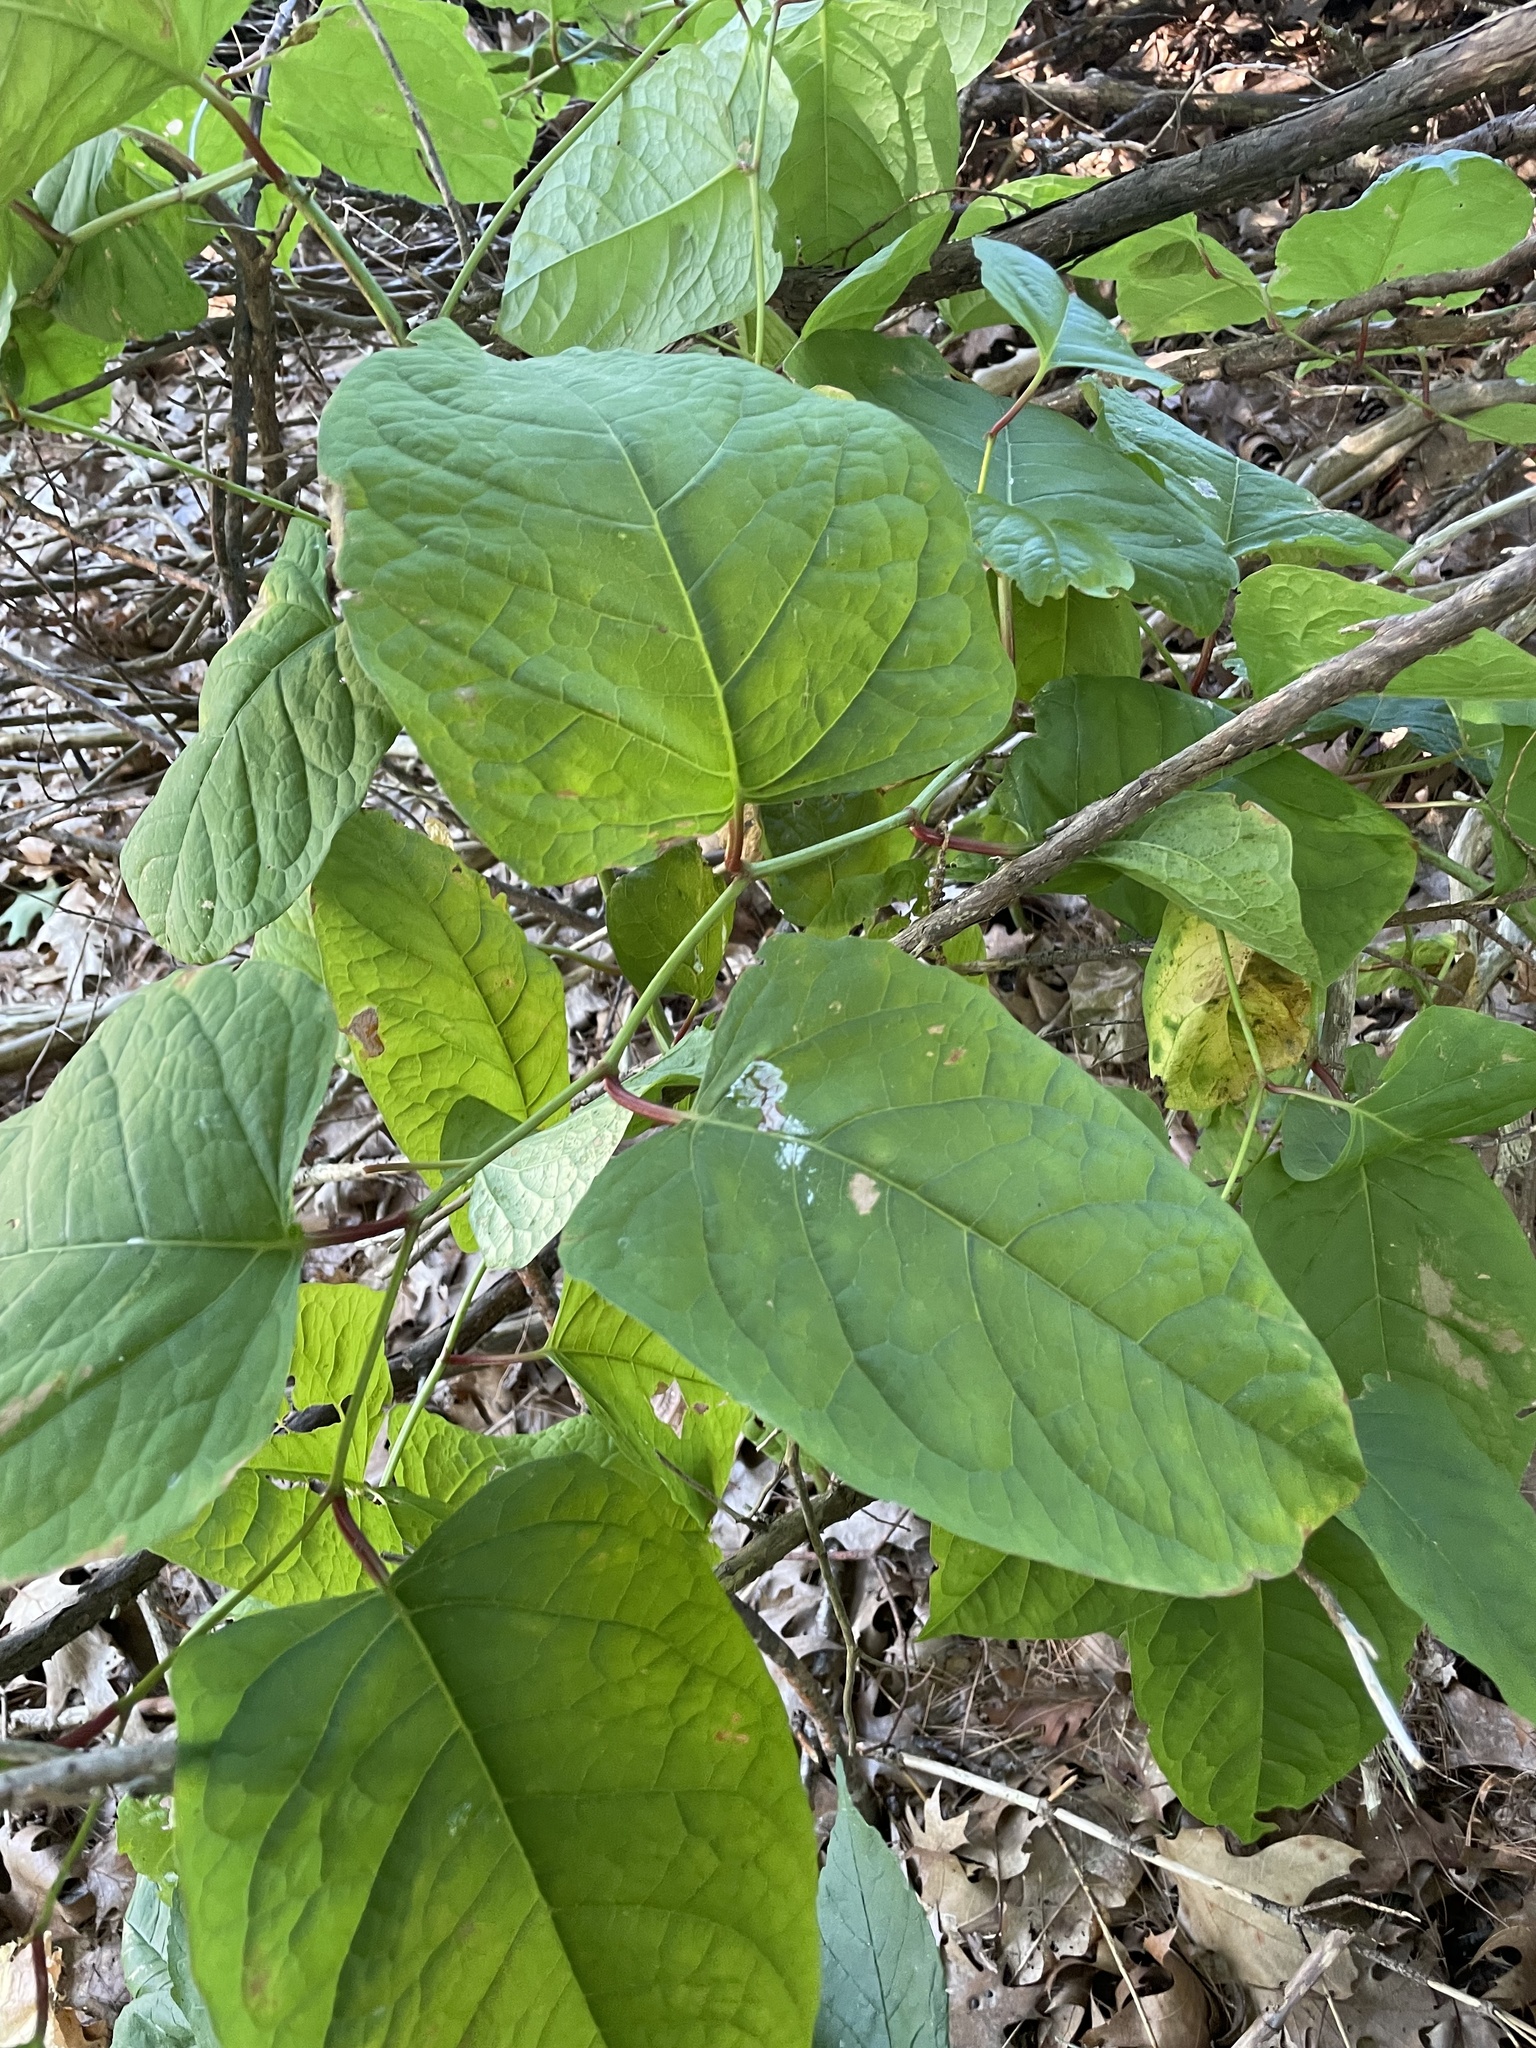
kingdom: Plantae
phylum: Tracheophyta
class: Magnoliopsida
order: Caryophyllales
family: Polygonaceae
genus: Reynoutria
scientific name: Reynoutria japonica
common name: Japanese knotweed
